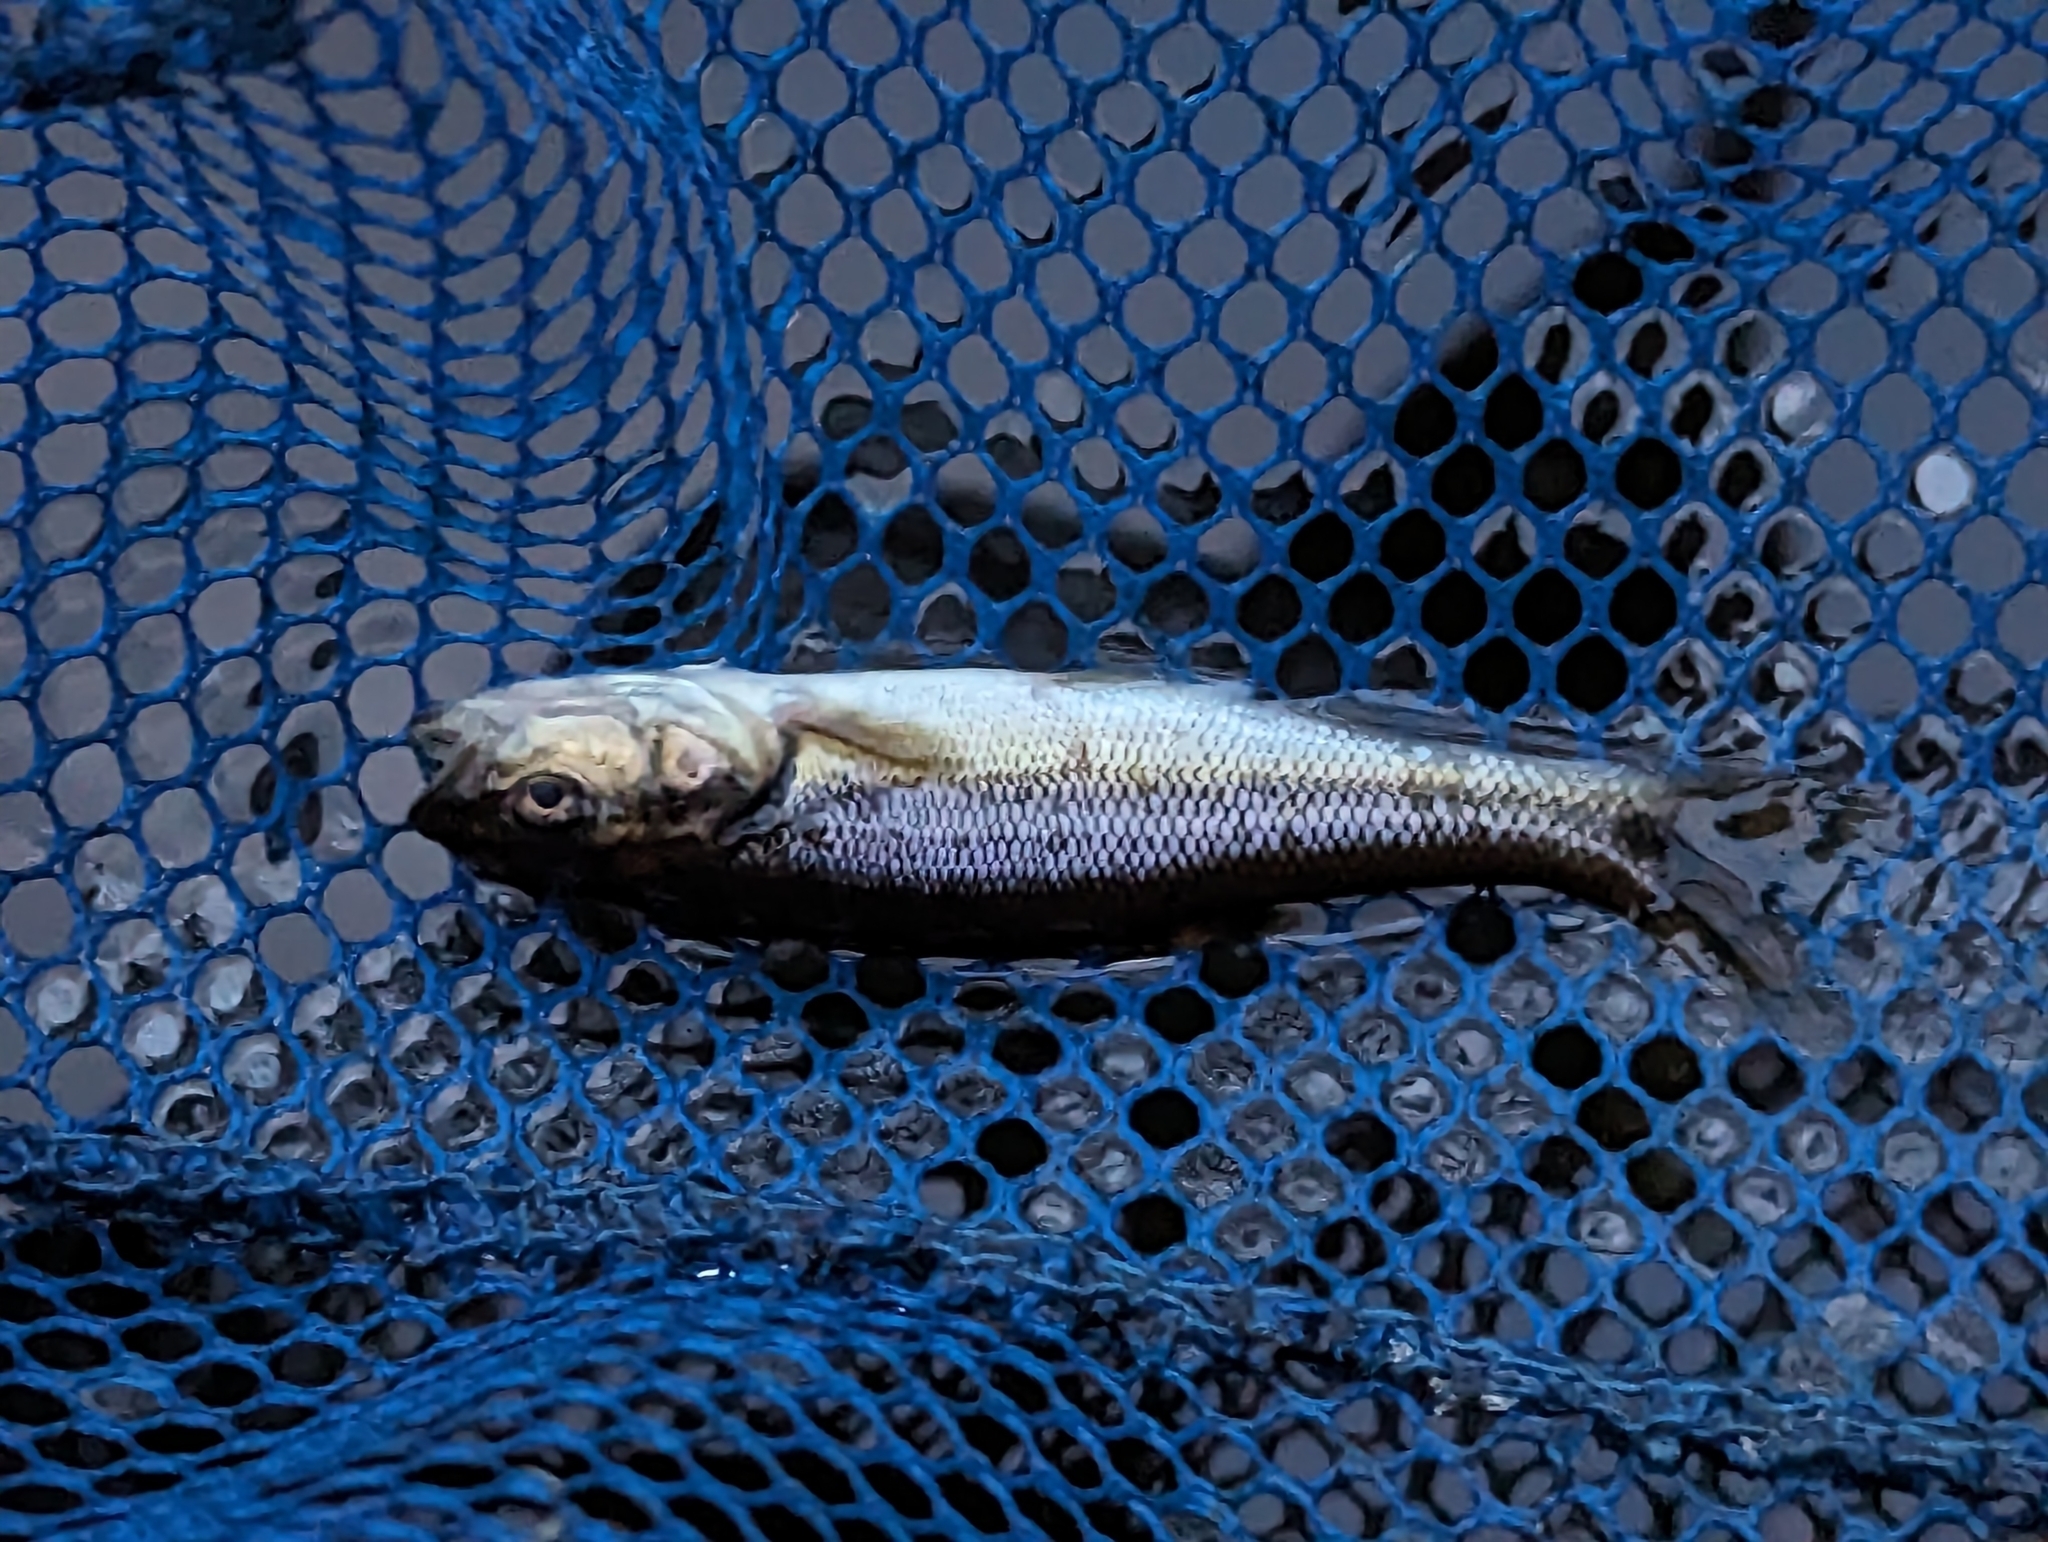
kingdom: Animalia
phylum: Chordata
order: Cypriniformes
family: Cyprinidae
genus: Semotilus
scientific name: Semotilus atromaculatus
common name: Creek chub
